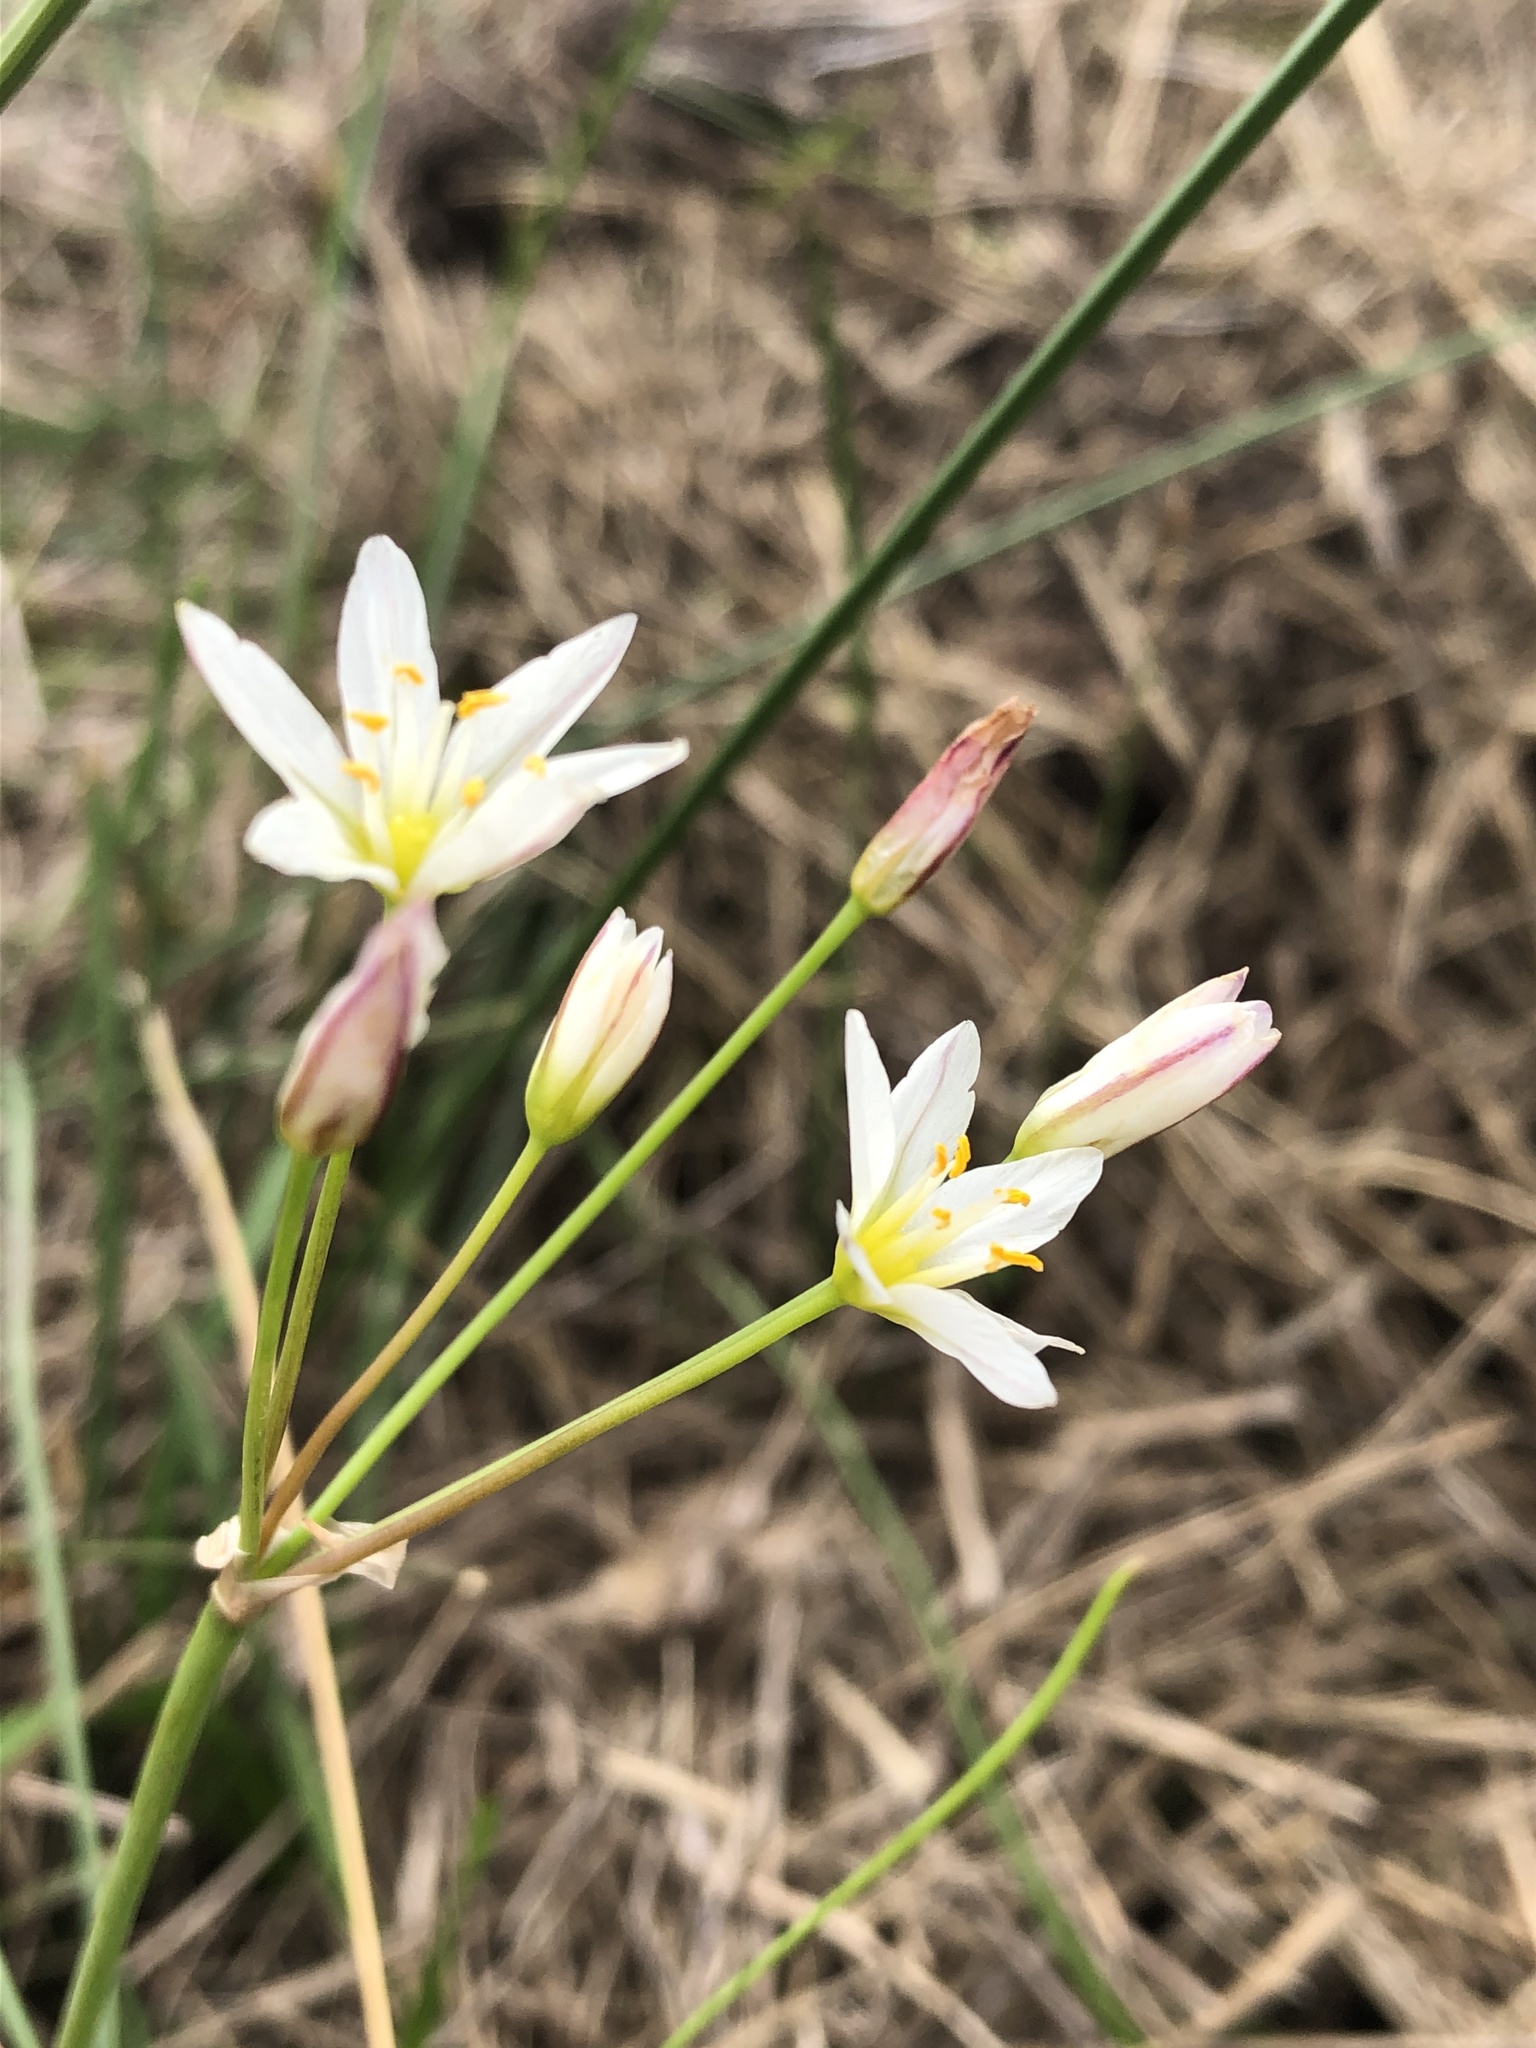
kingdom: Plantae
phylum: Tracheophyta
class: Liliopsida
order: Asparagales
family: Amaryllidaceae
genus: Nothoscordum
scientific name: Nothoscordum bivalve
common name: Crow-poison
